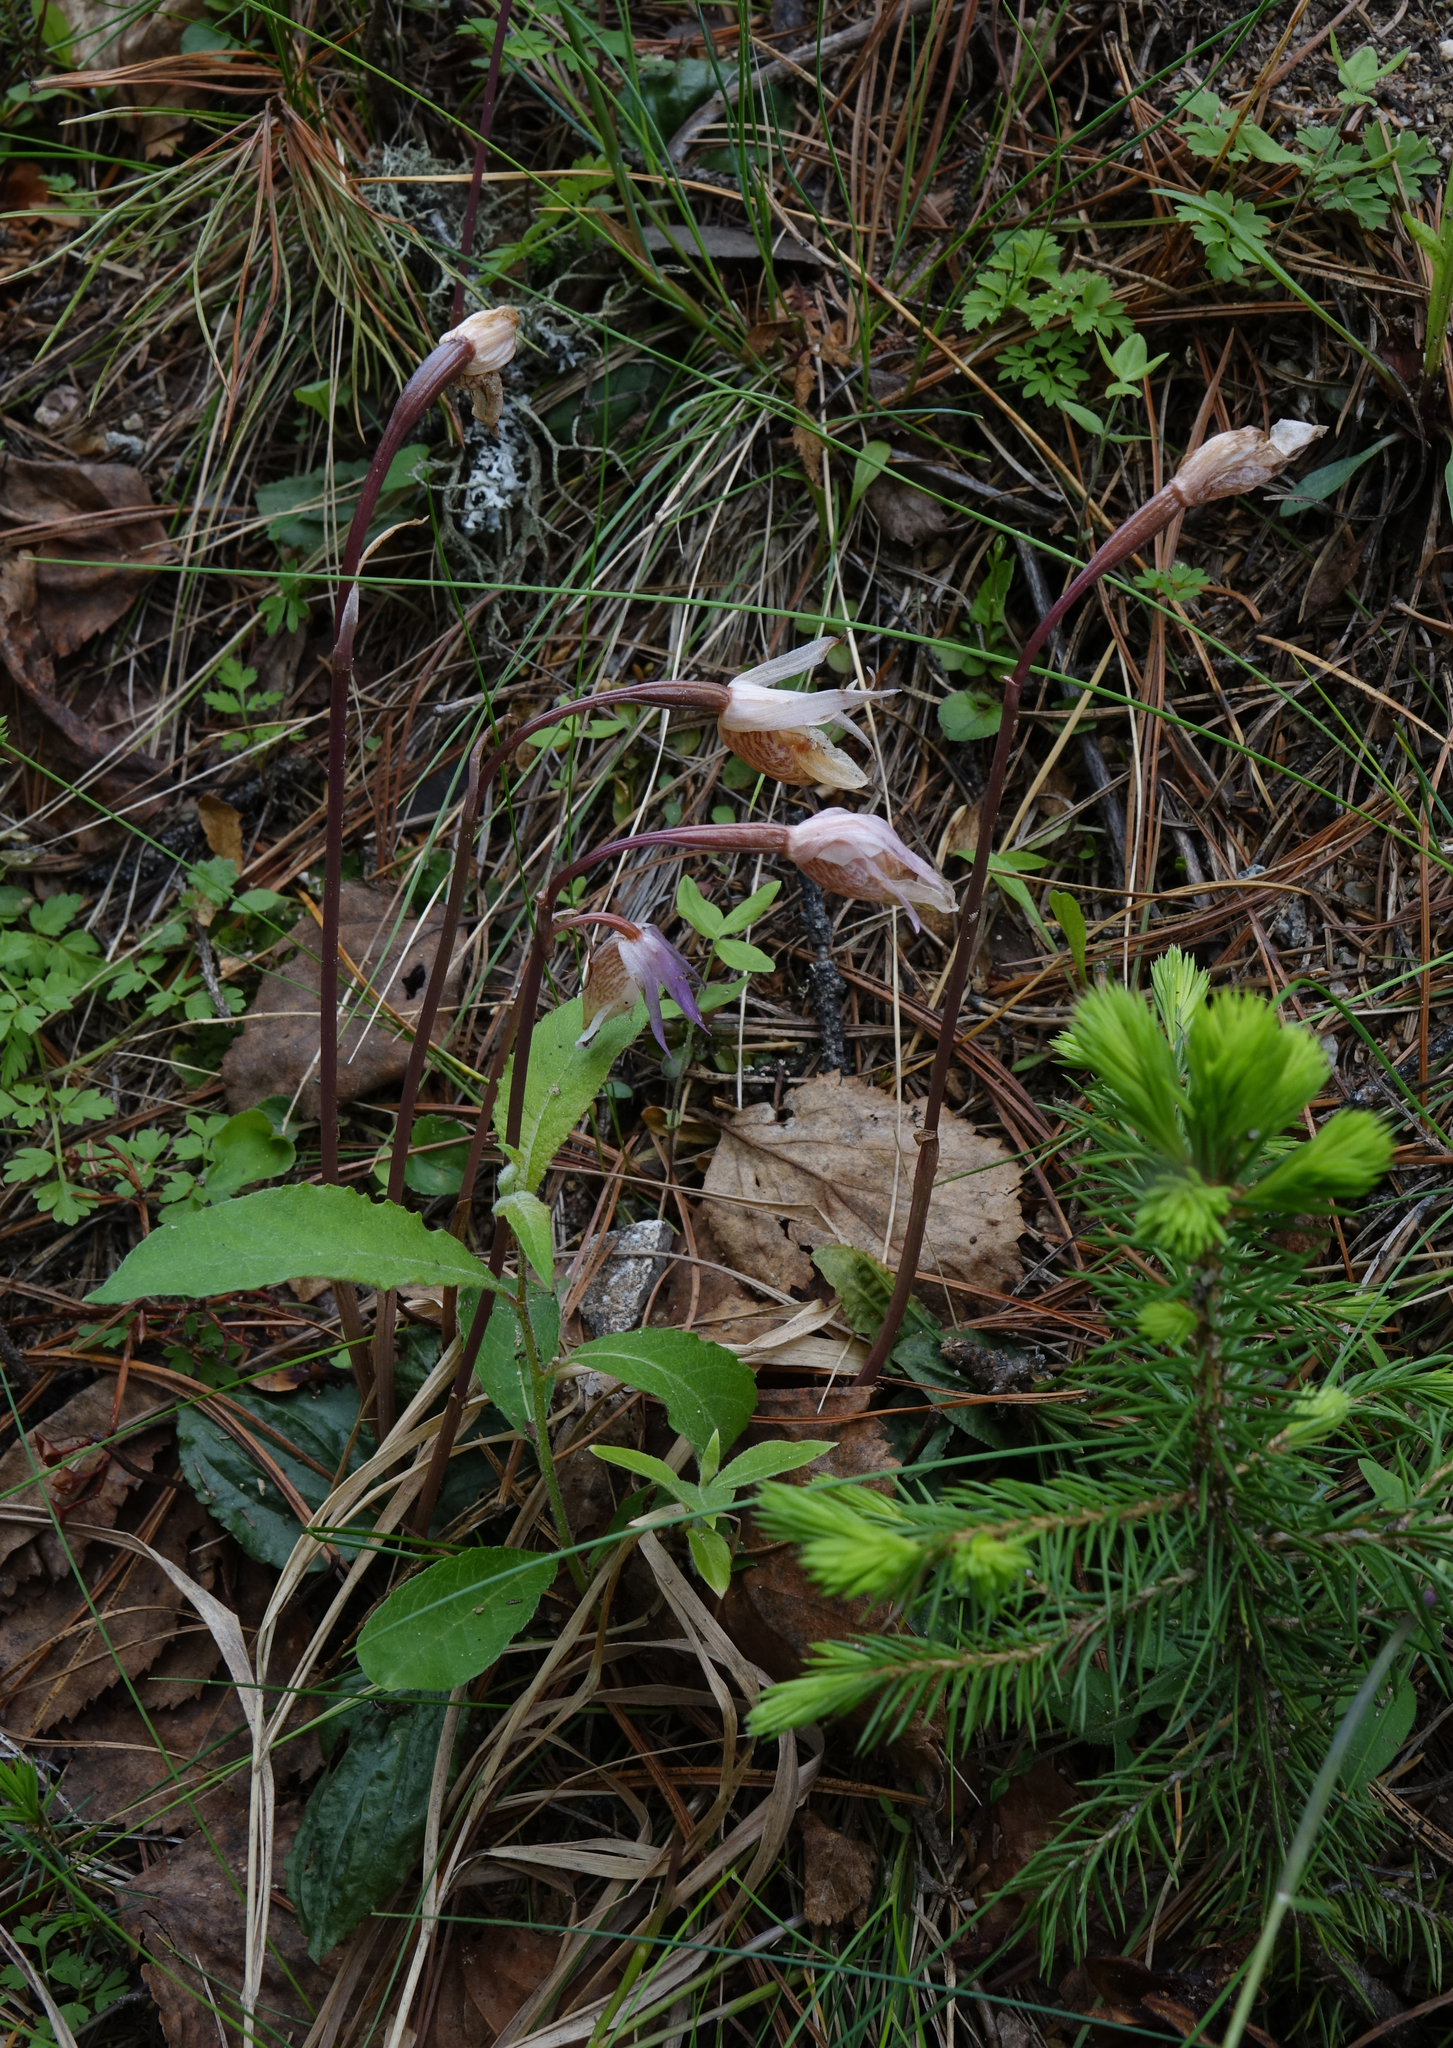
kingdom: Plantae
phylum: Tracheophyta
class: Liliopsida
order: Asparagales
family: Orchidaceae
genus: Calypso
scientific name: Calypso bulbosa
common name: Calypso
